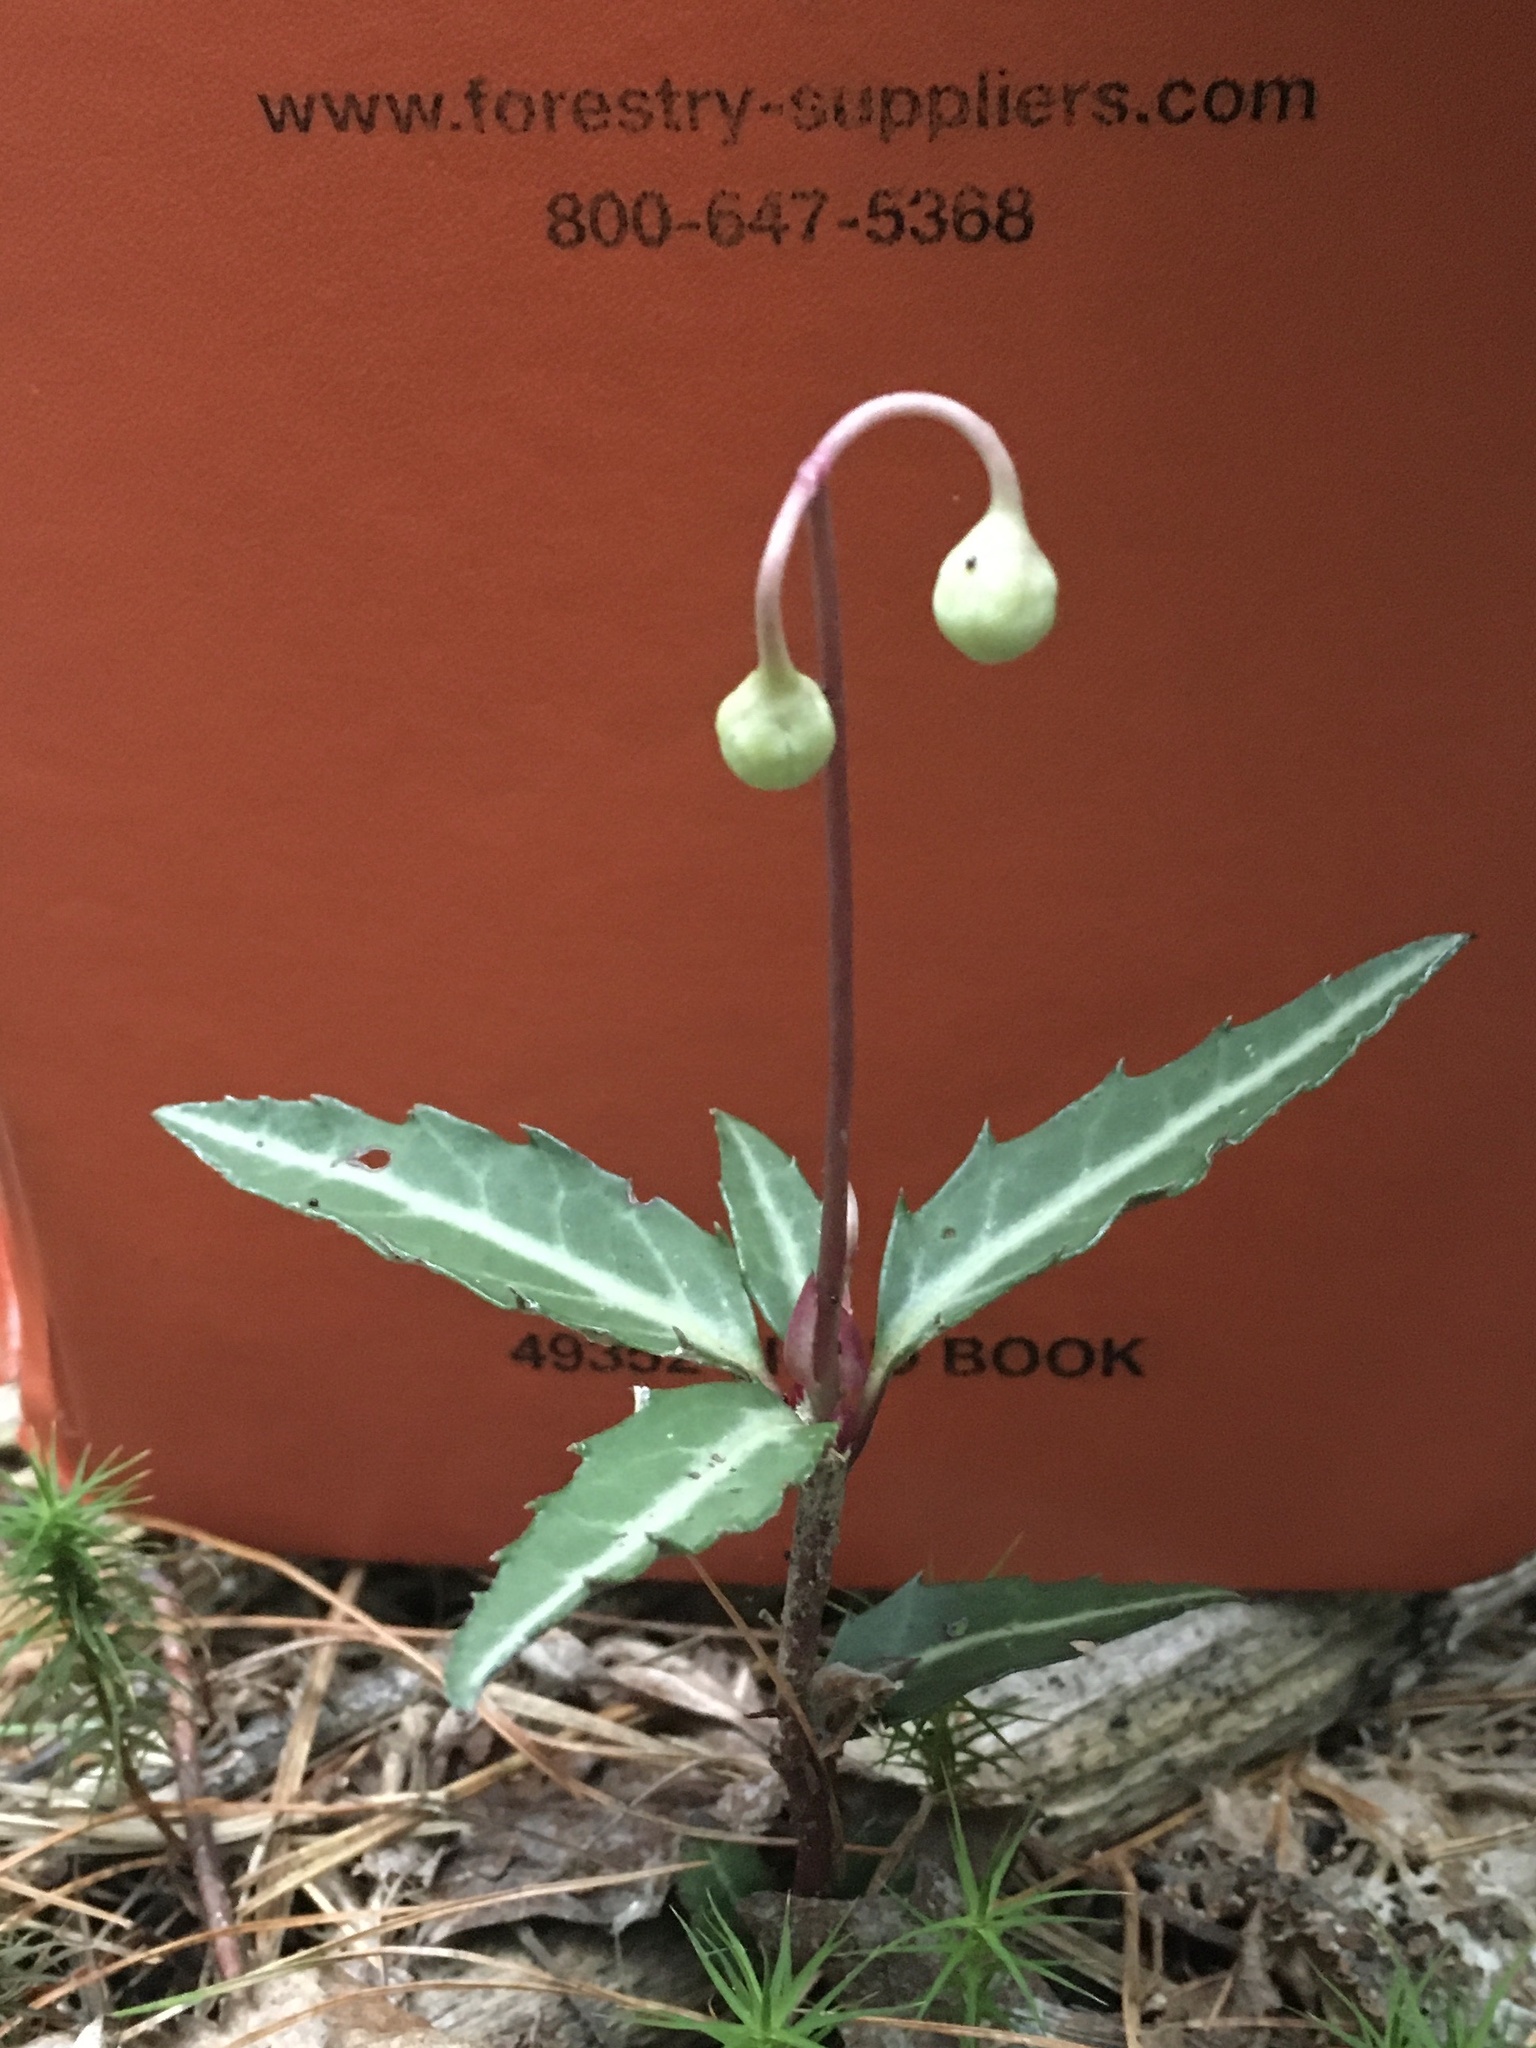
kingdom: Plantae
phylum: Tracheophyta
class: Magnoliopsida
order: Ericales
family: Ericaceae
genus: Chimaphila
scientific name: Chimaphila maculata
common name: Spotted pipsissewa
